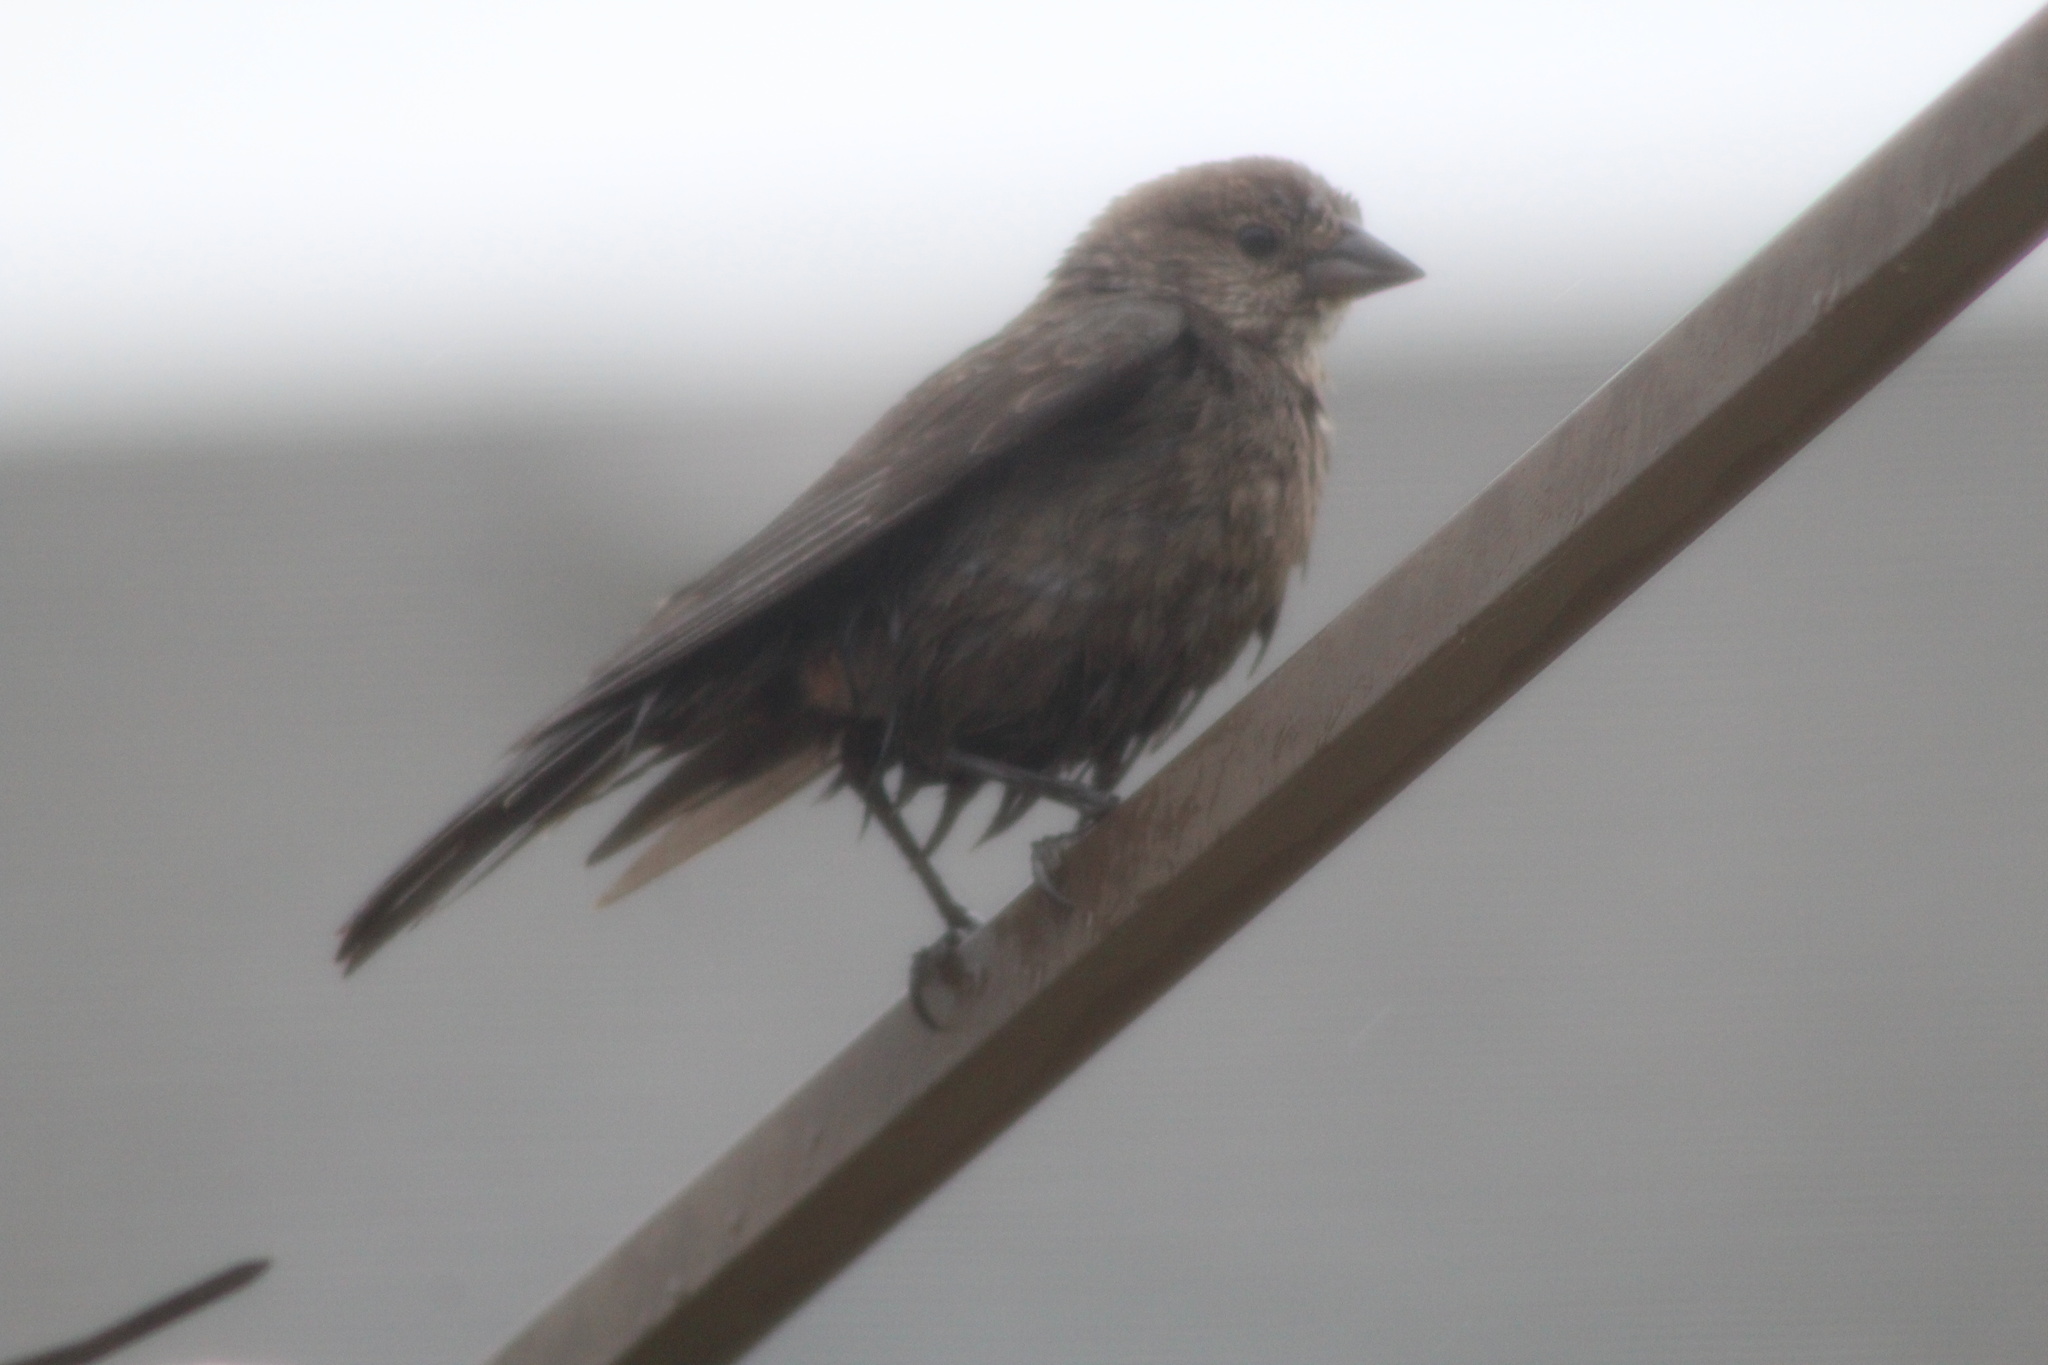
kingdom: Animalia
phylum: Chordata
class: Aves
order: Passeriformes
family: Icteridae
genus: Molothrus
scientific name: Molothrus ater
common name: Brown-headed cowbird
